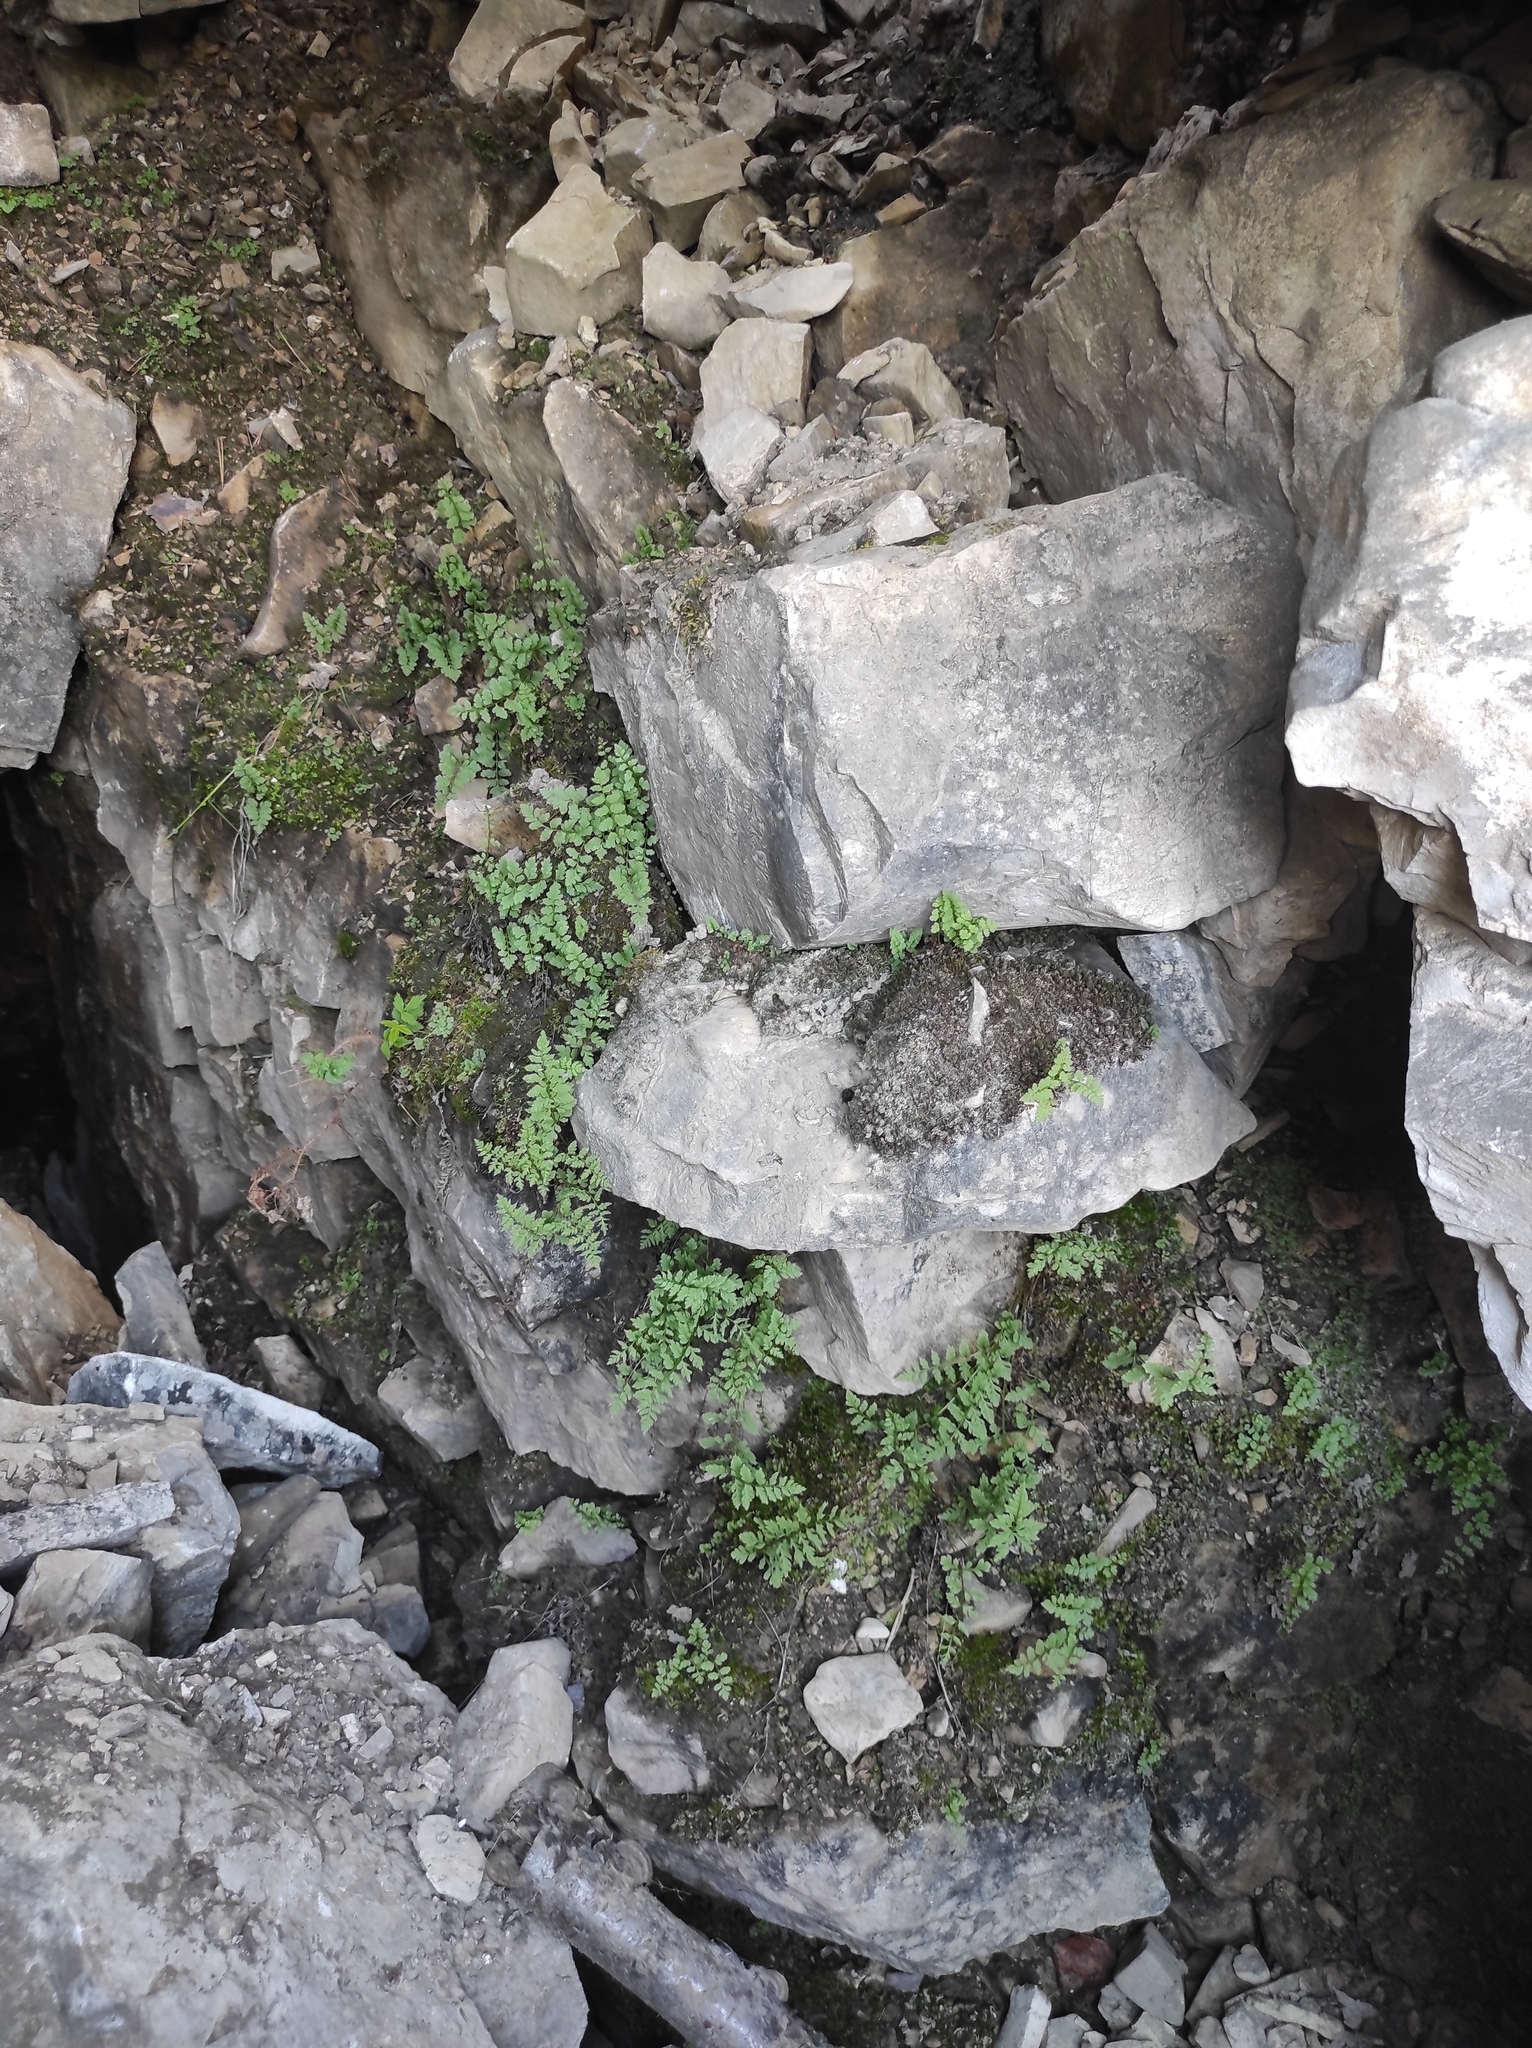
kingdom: Plantae
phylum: Tracheophyta
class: Polypodiopsida
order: Polypodiales
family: Cystopteridaceae
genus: Cystopteris
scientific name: Cystopteris fragilis
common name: Brittle bladder fern
